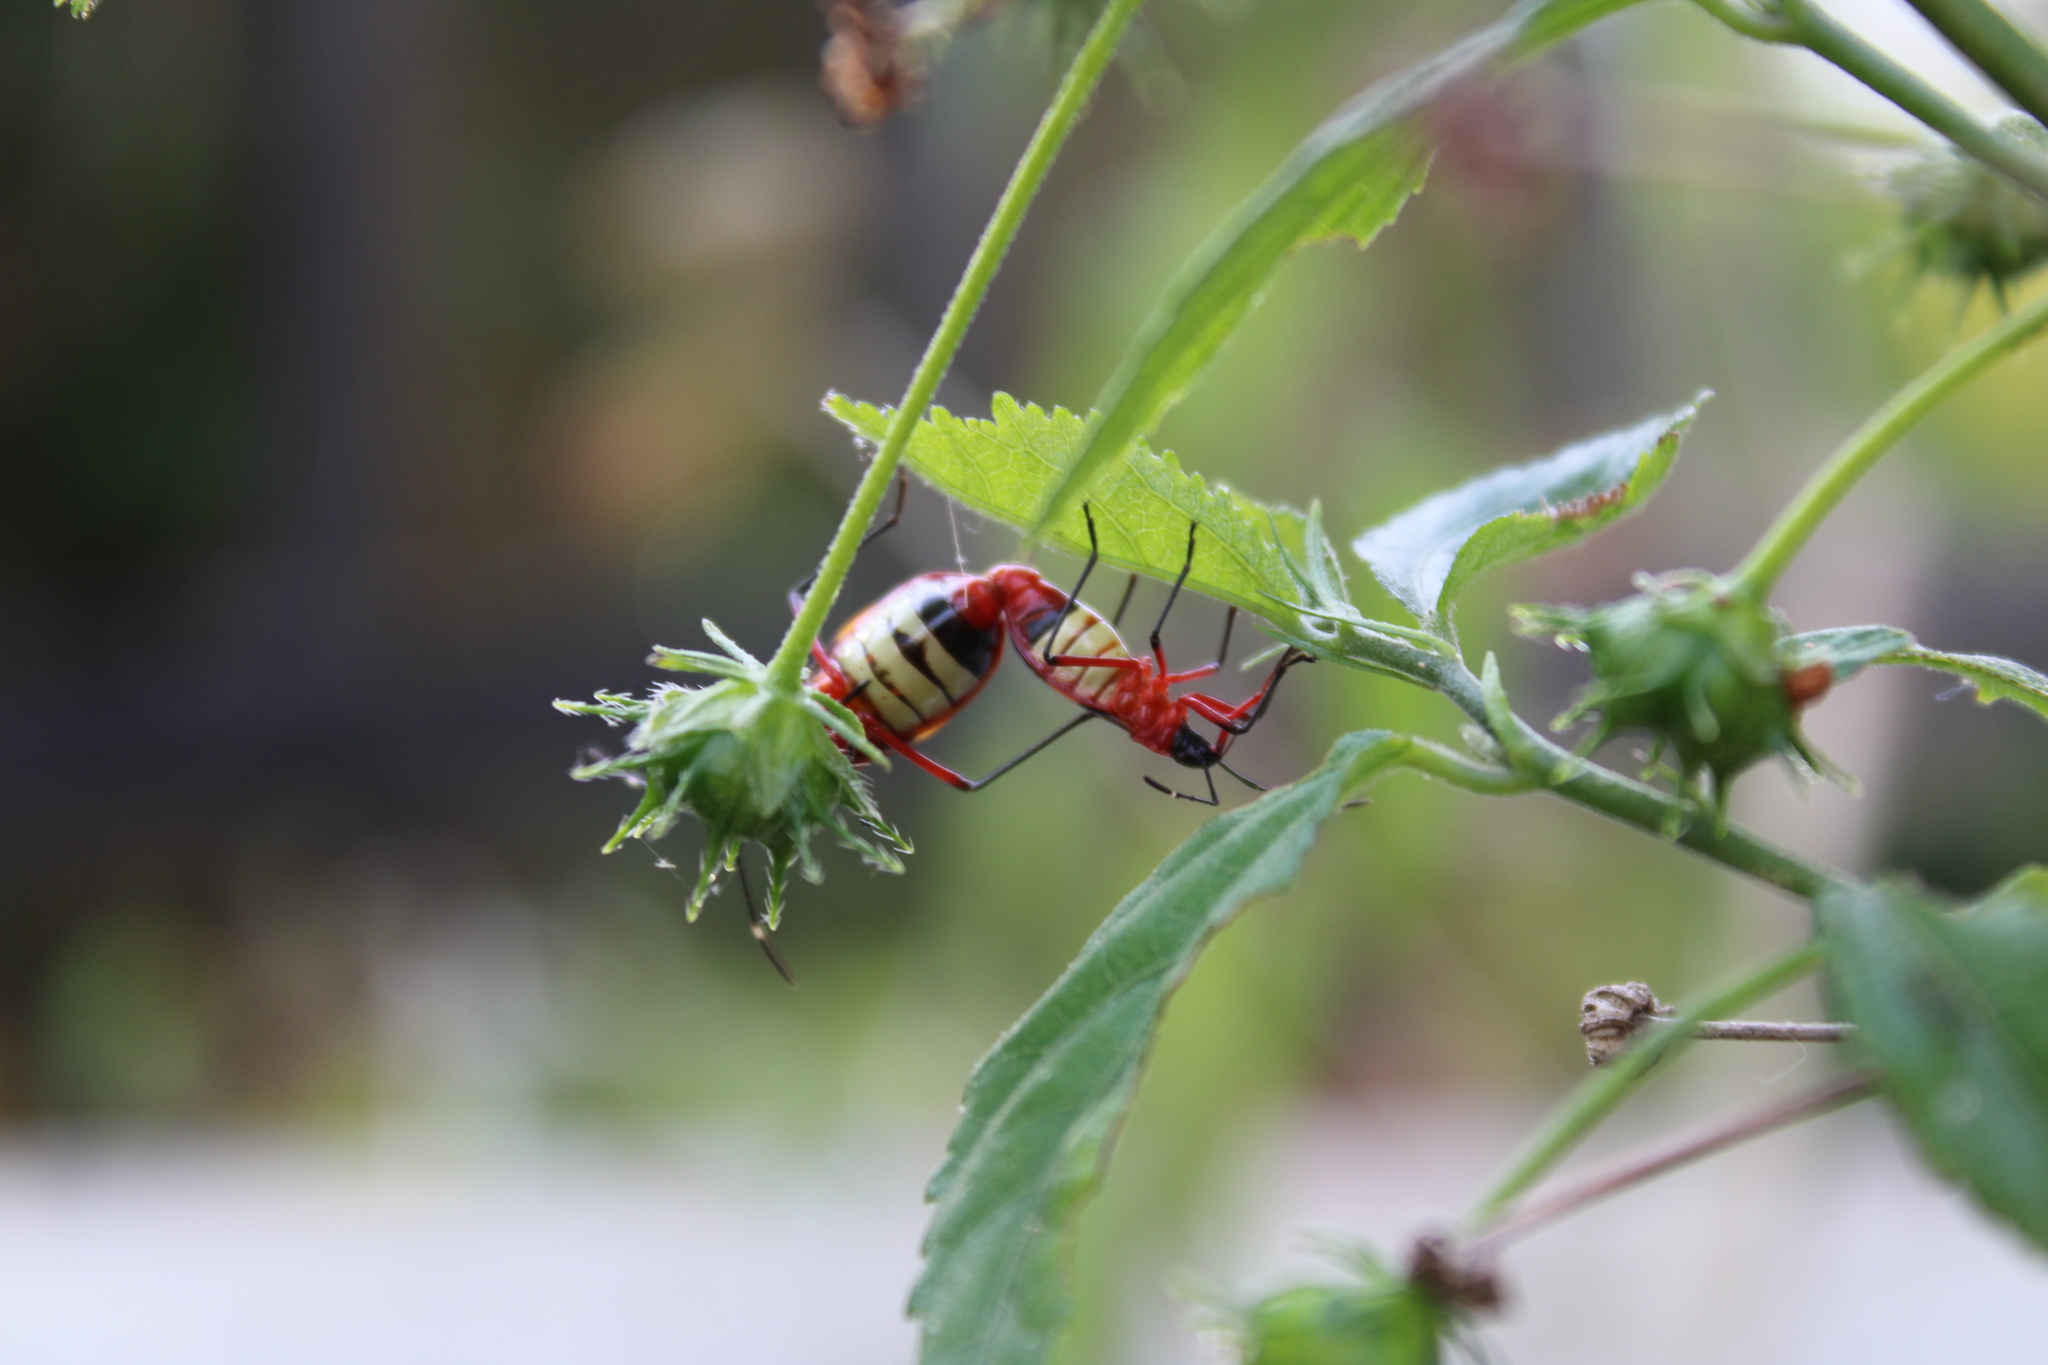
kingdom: Animalia
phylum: Arthropoda
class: Insecta
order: Hemiptera
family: Pyrrhocoridae
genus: Dysdercus
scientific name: Dysdercus albofasciatus
